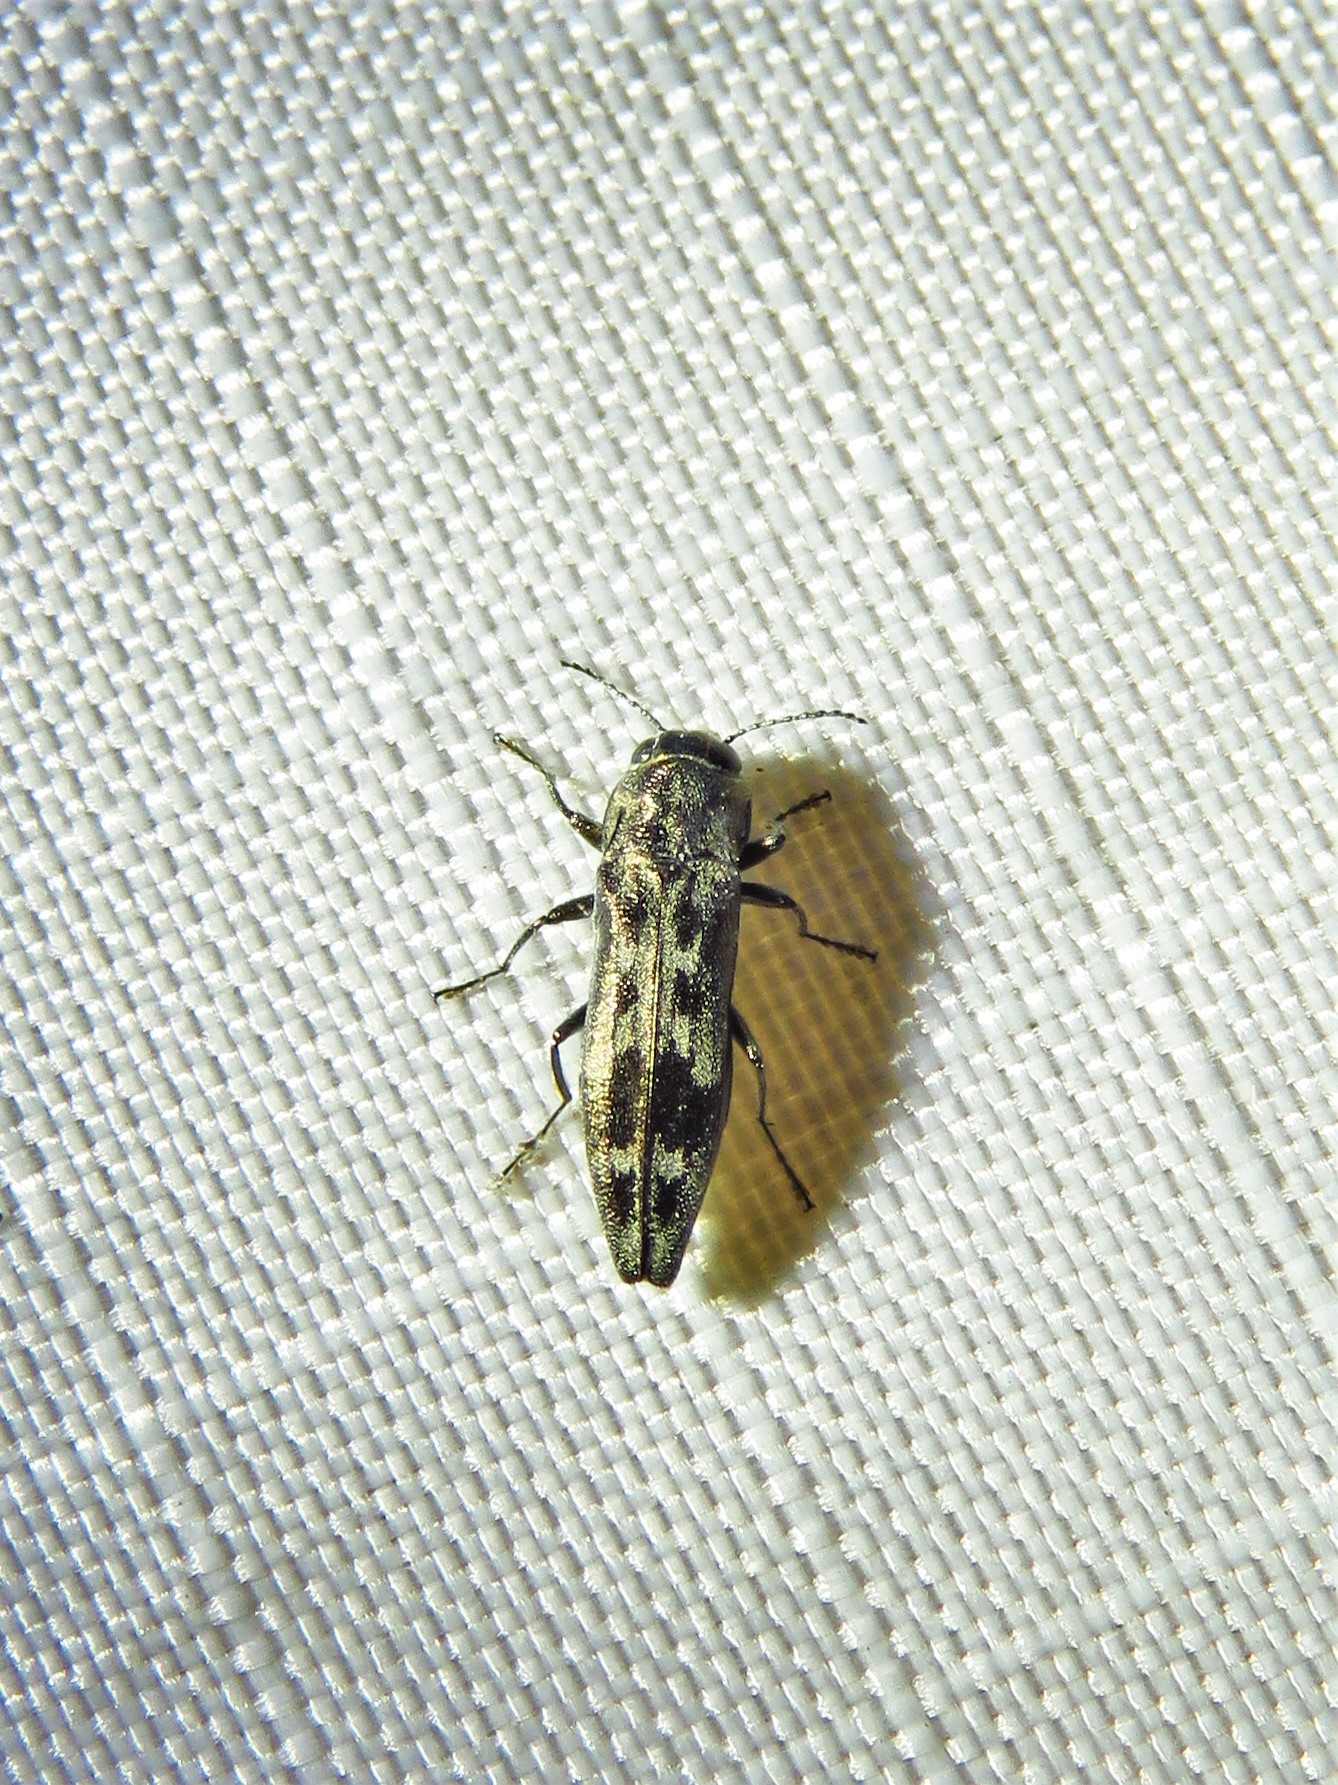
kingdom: Animalia
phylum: Arthropoda
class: Insecta
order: Coleoptera
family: Buprestidae
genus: Agrilus
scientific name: Agrilus lecontei
